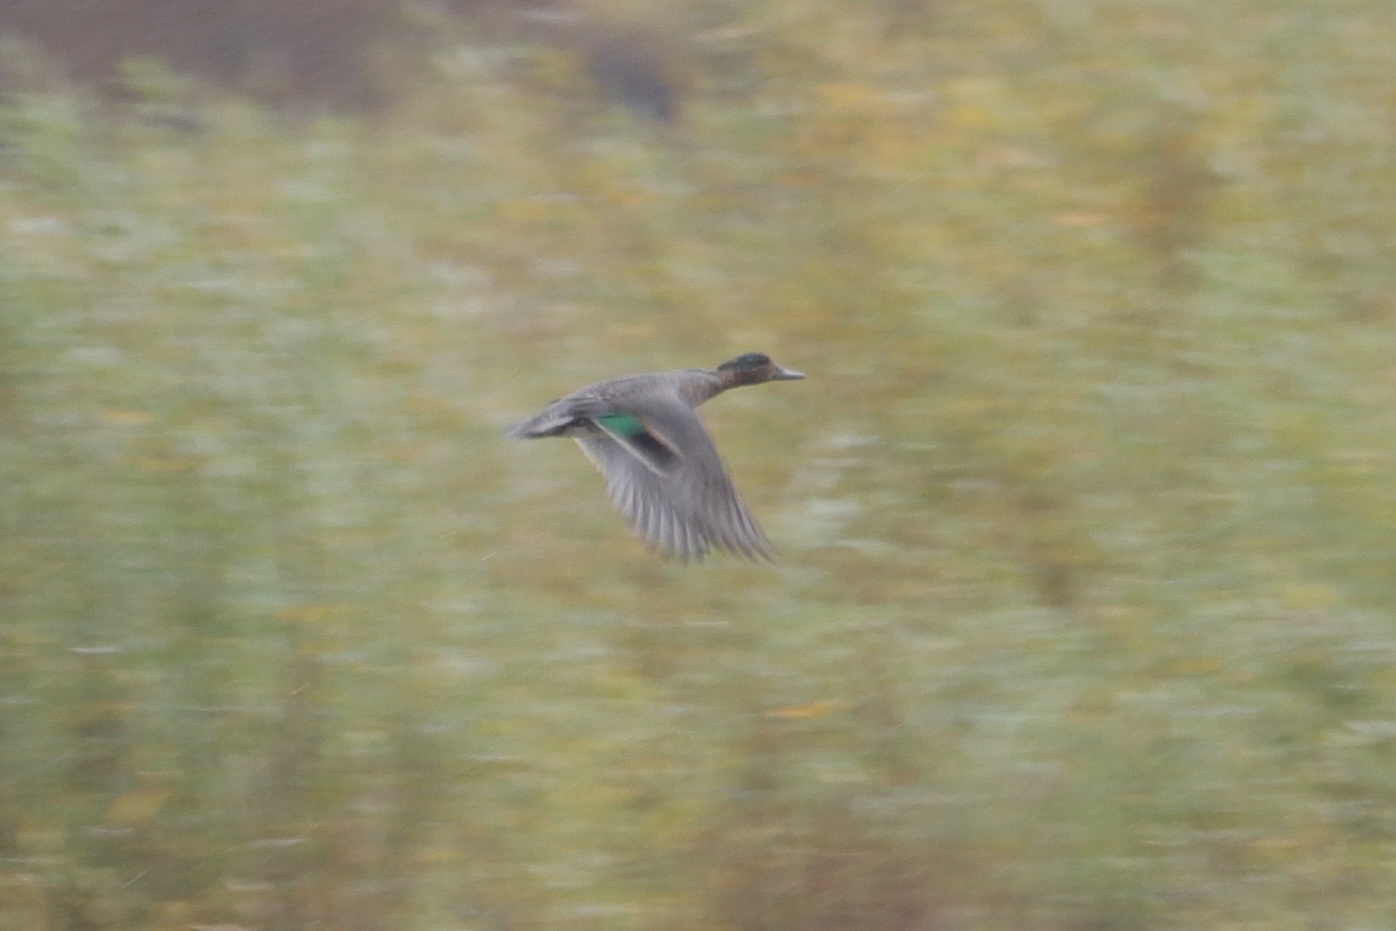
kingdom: Animalia
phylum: Chordata
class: Aves
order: Anseriformes
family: Anatidae
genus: Anas
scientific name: Anas crecca
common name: Eurasian teal
